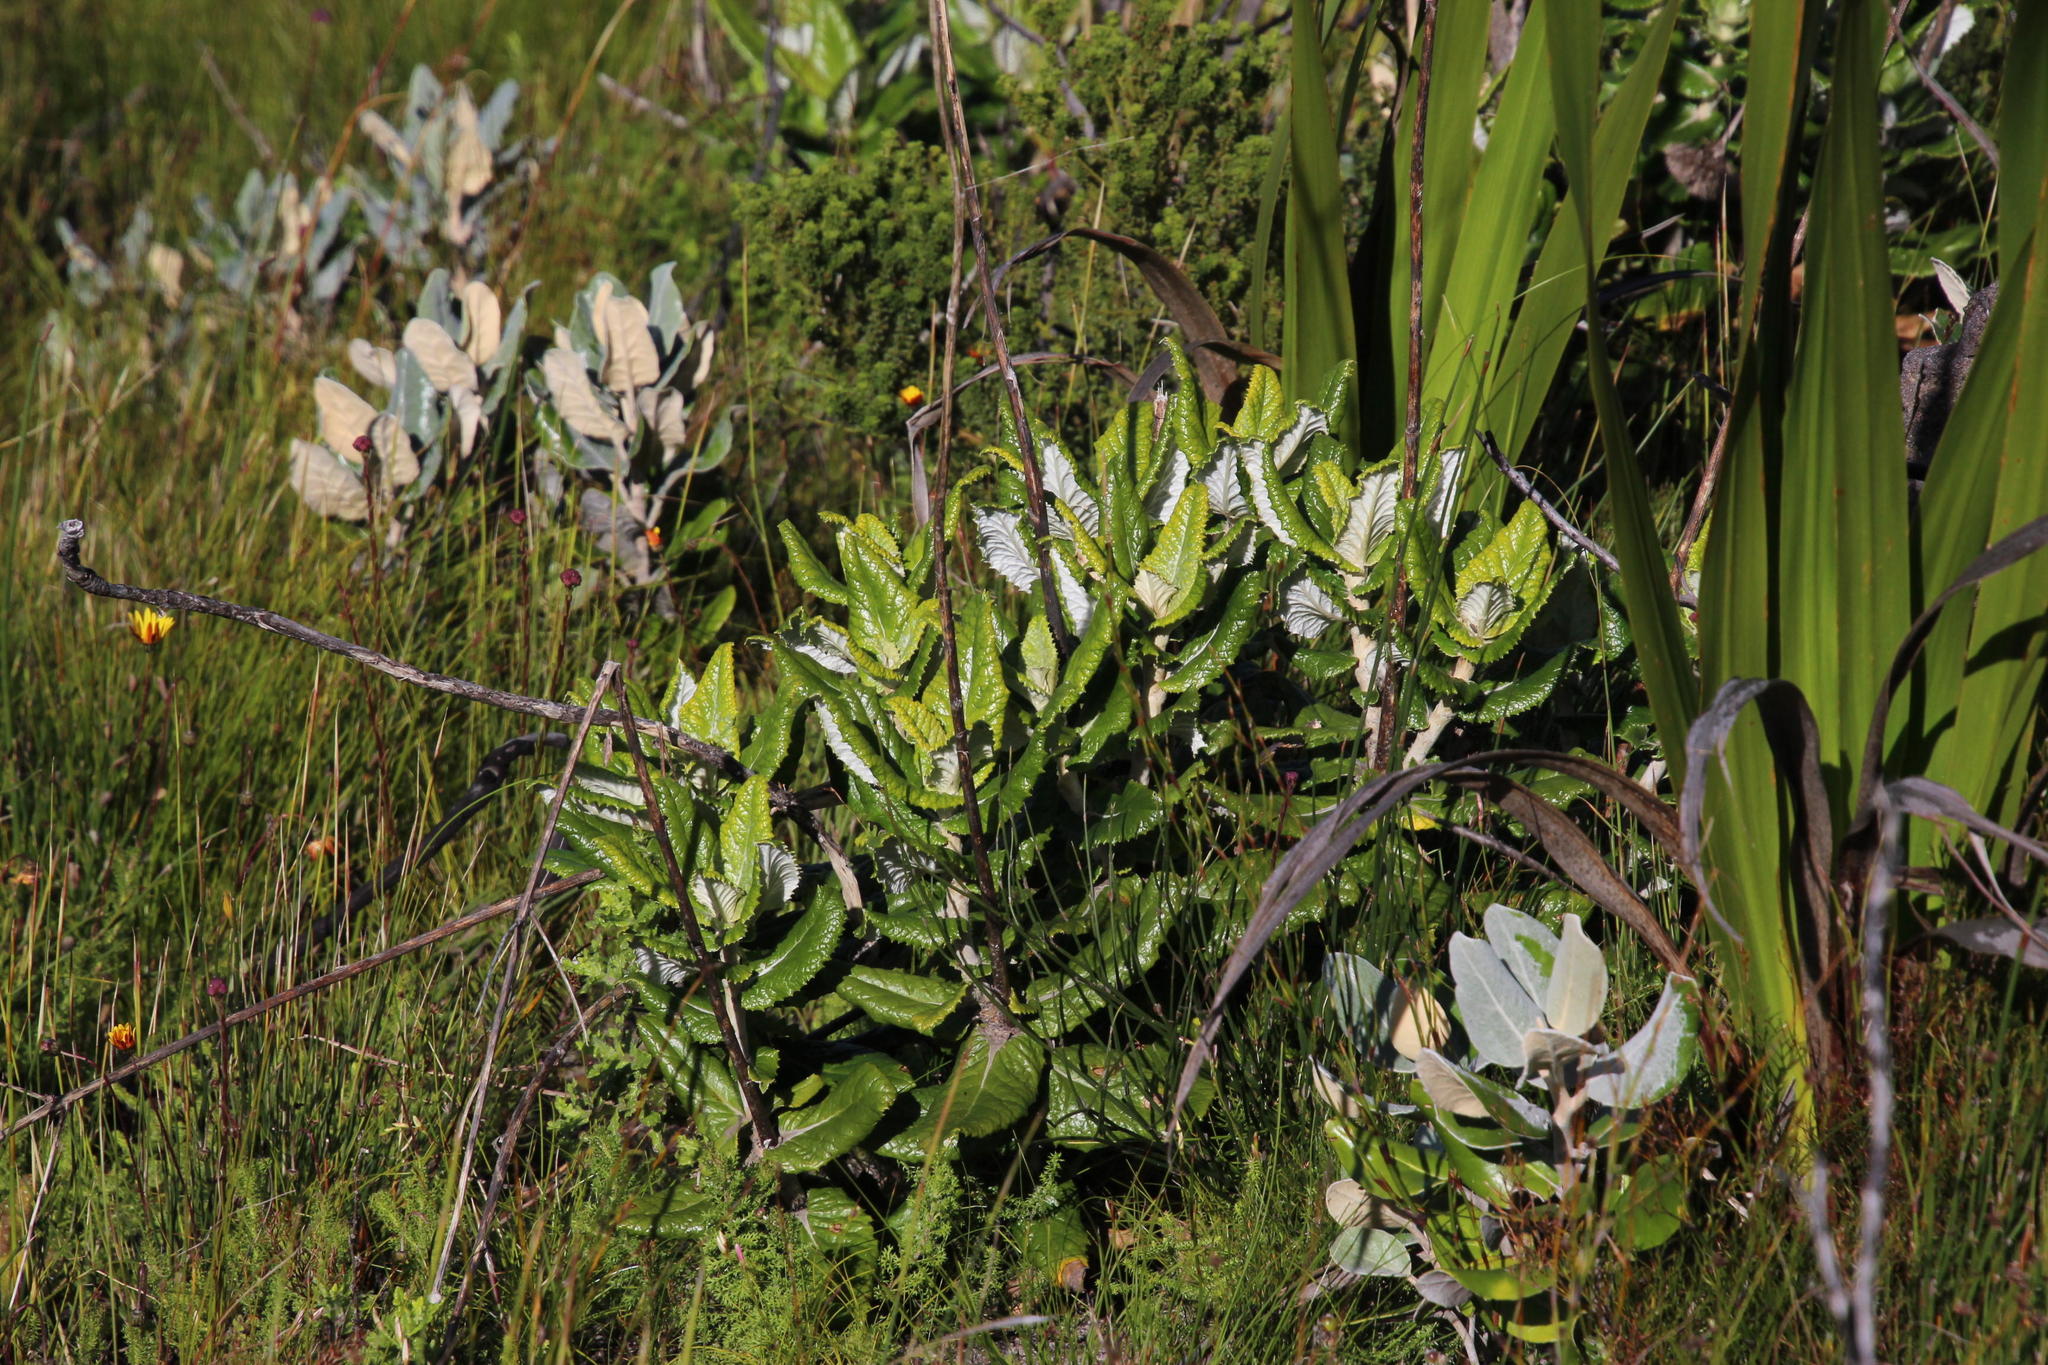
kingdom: Plantae
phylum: Tracheophyta
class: Magnoliopsida
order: Apiales
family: Apiaceae
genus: Hermas
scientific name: Hermas villosa
